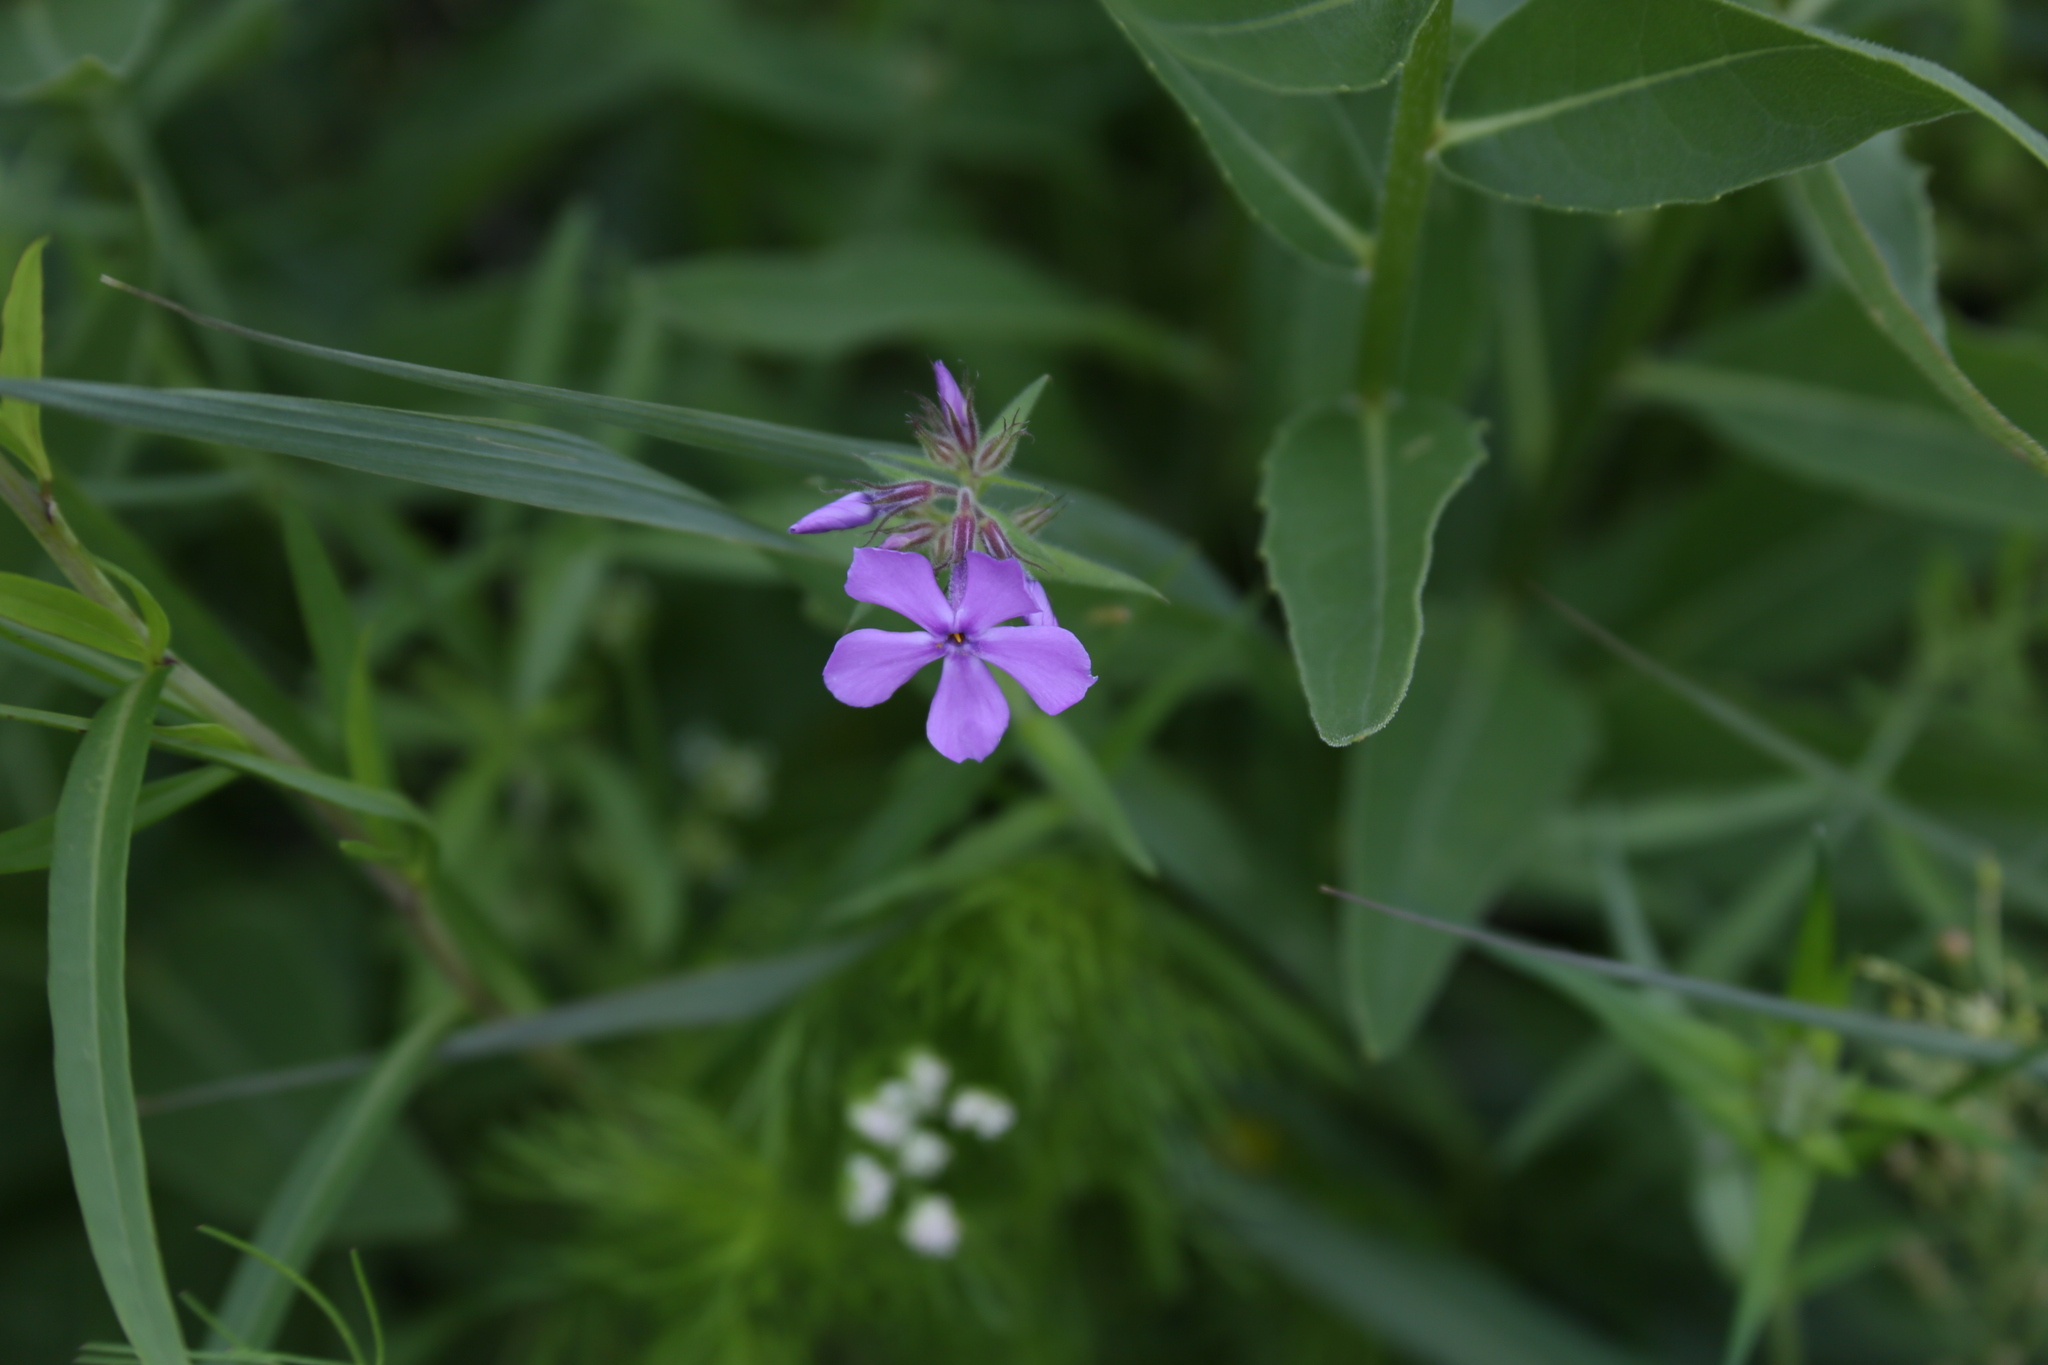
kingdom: Plantae
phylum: Tracheophyta
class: Magnoliopsida
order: Ericales
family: Polemoniaceae
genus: Phlox
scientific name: Phlox pilosa
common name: Prairie phlox
